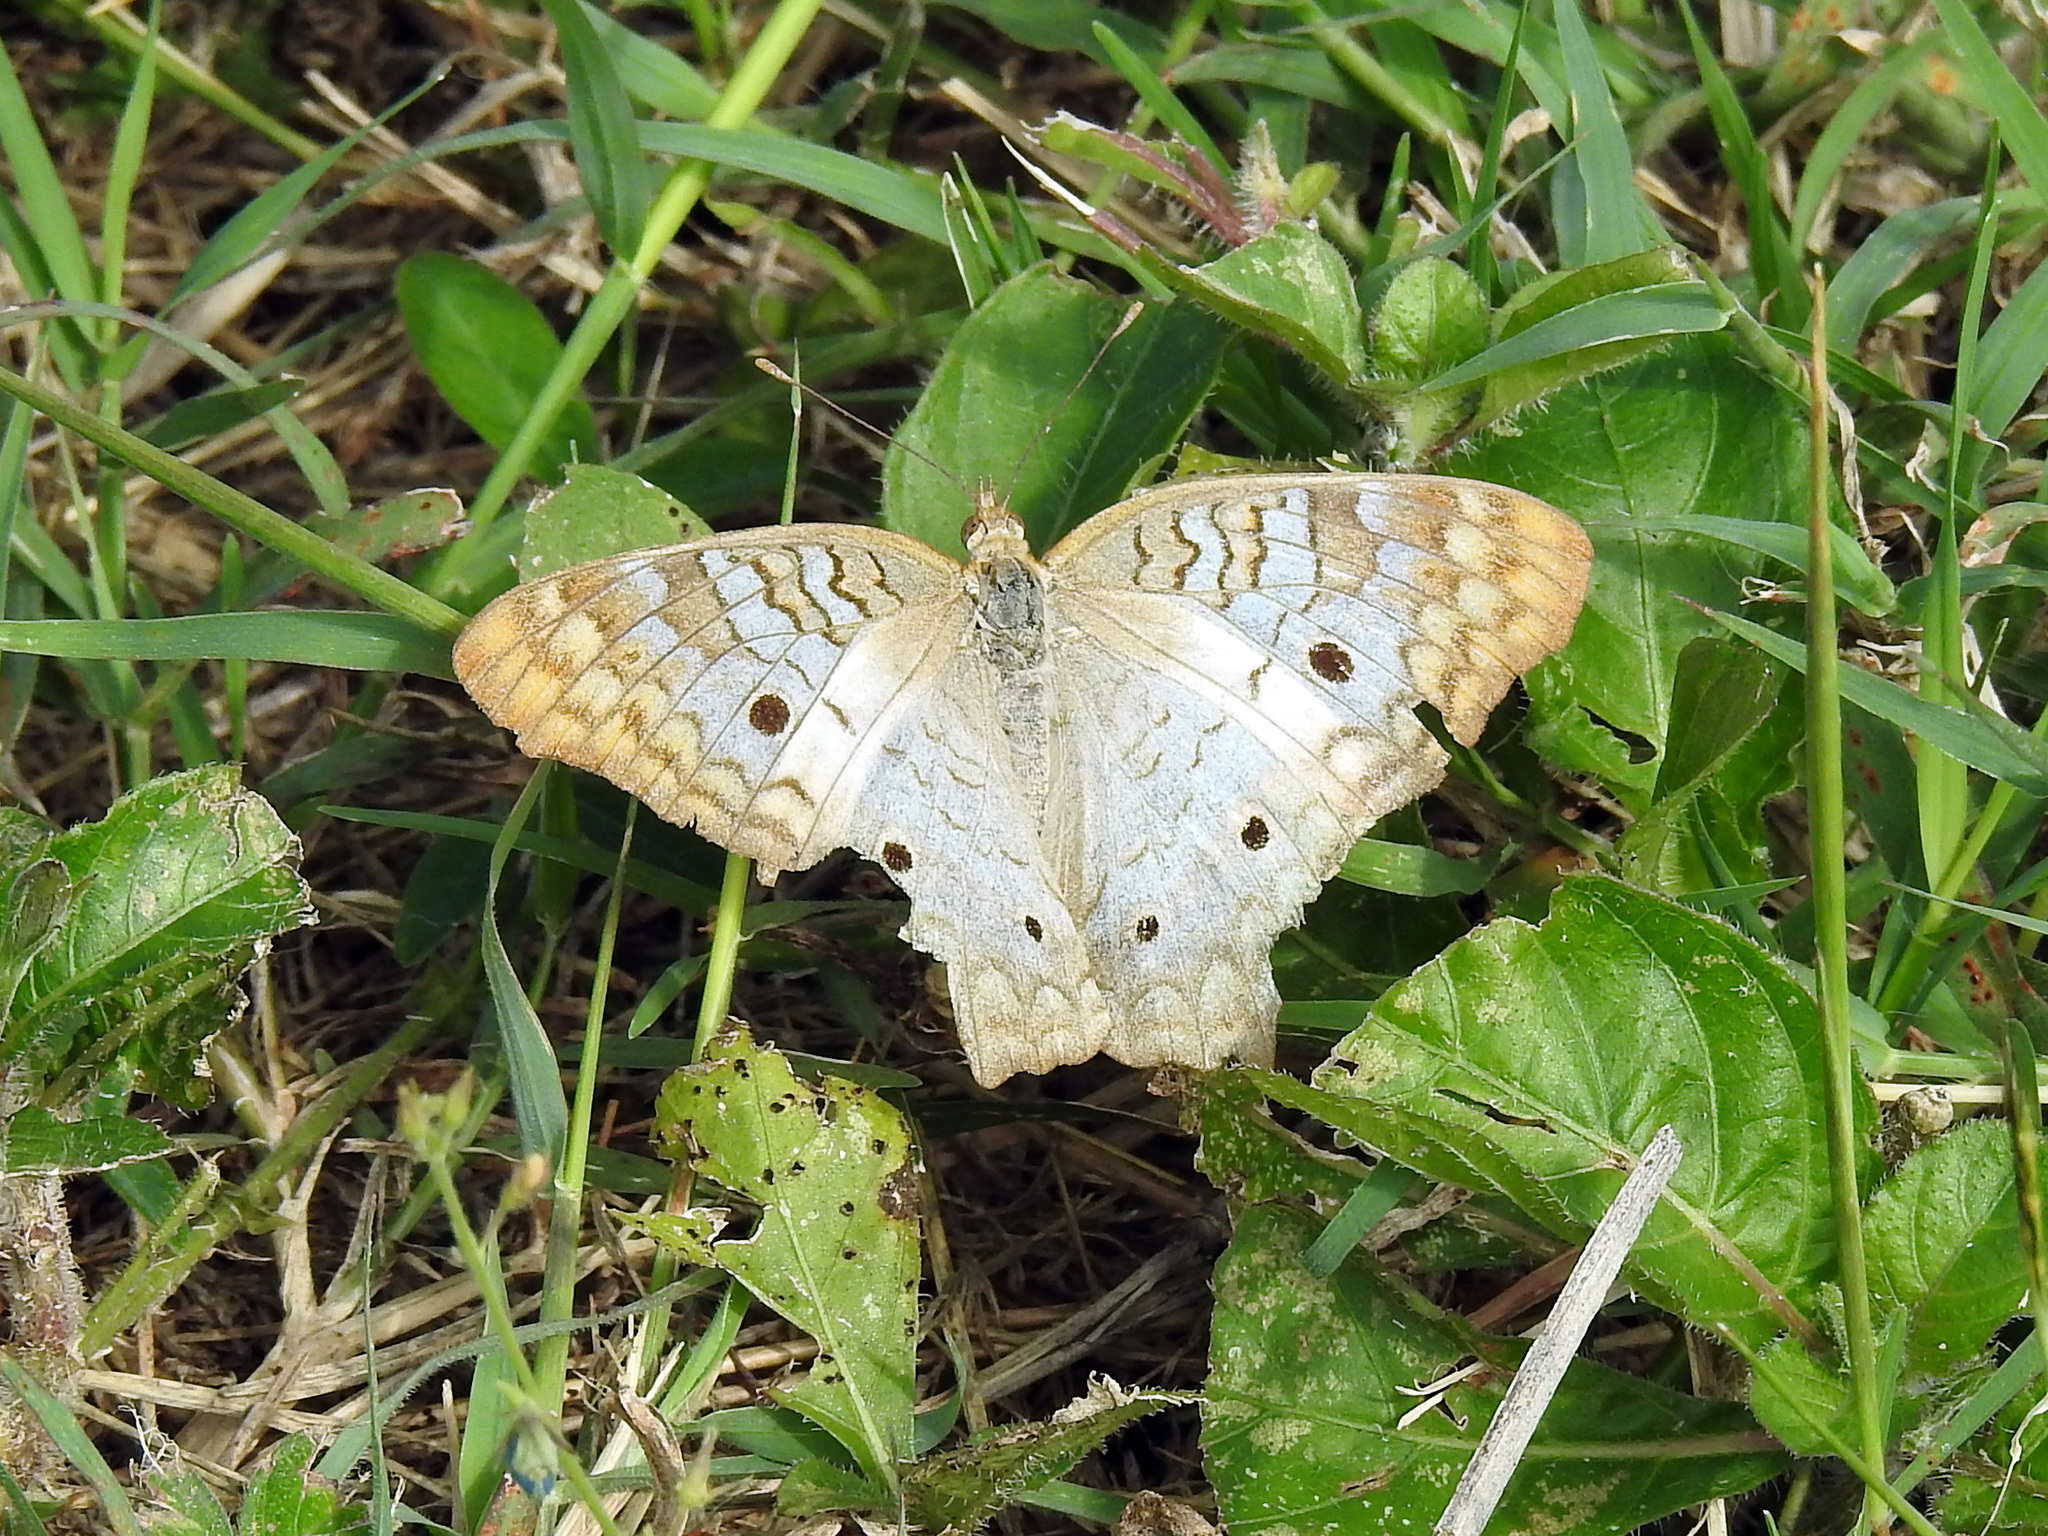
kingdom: Animalia
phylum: Arthropoda
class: Insecta
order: Lepidoptera
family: Nymphalidae
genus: Anartia
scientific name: Anartia jatrophae
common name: White peacock
